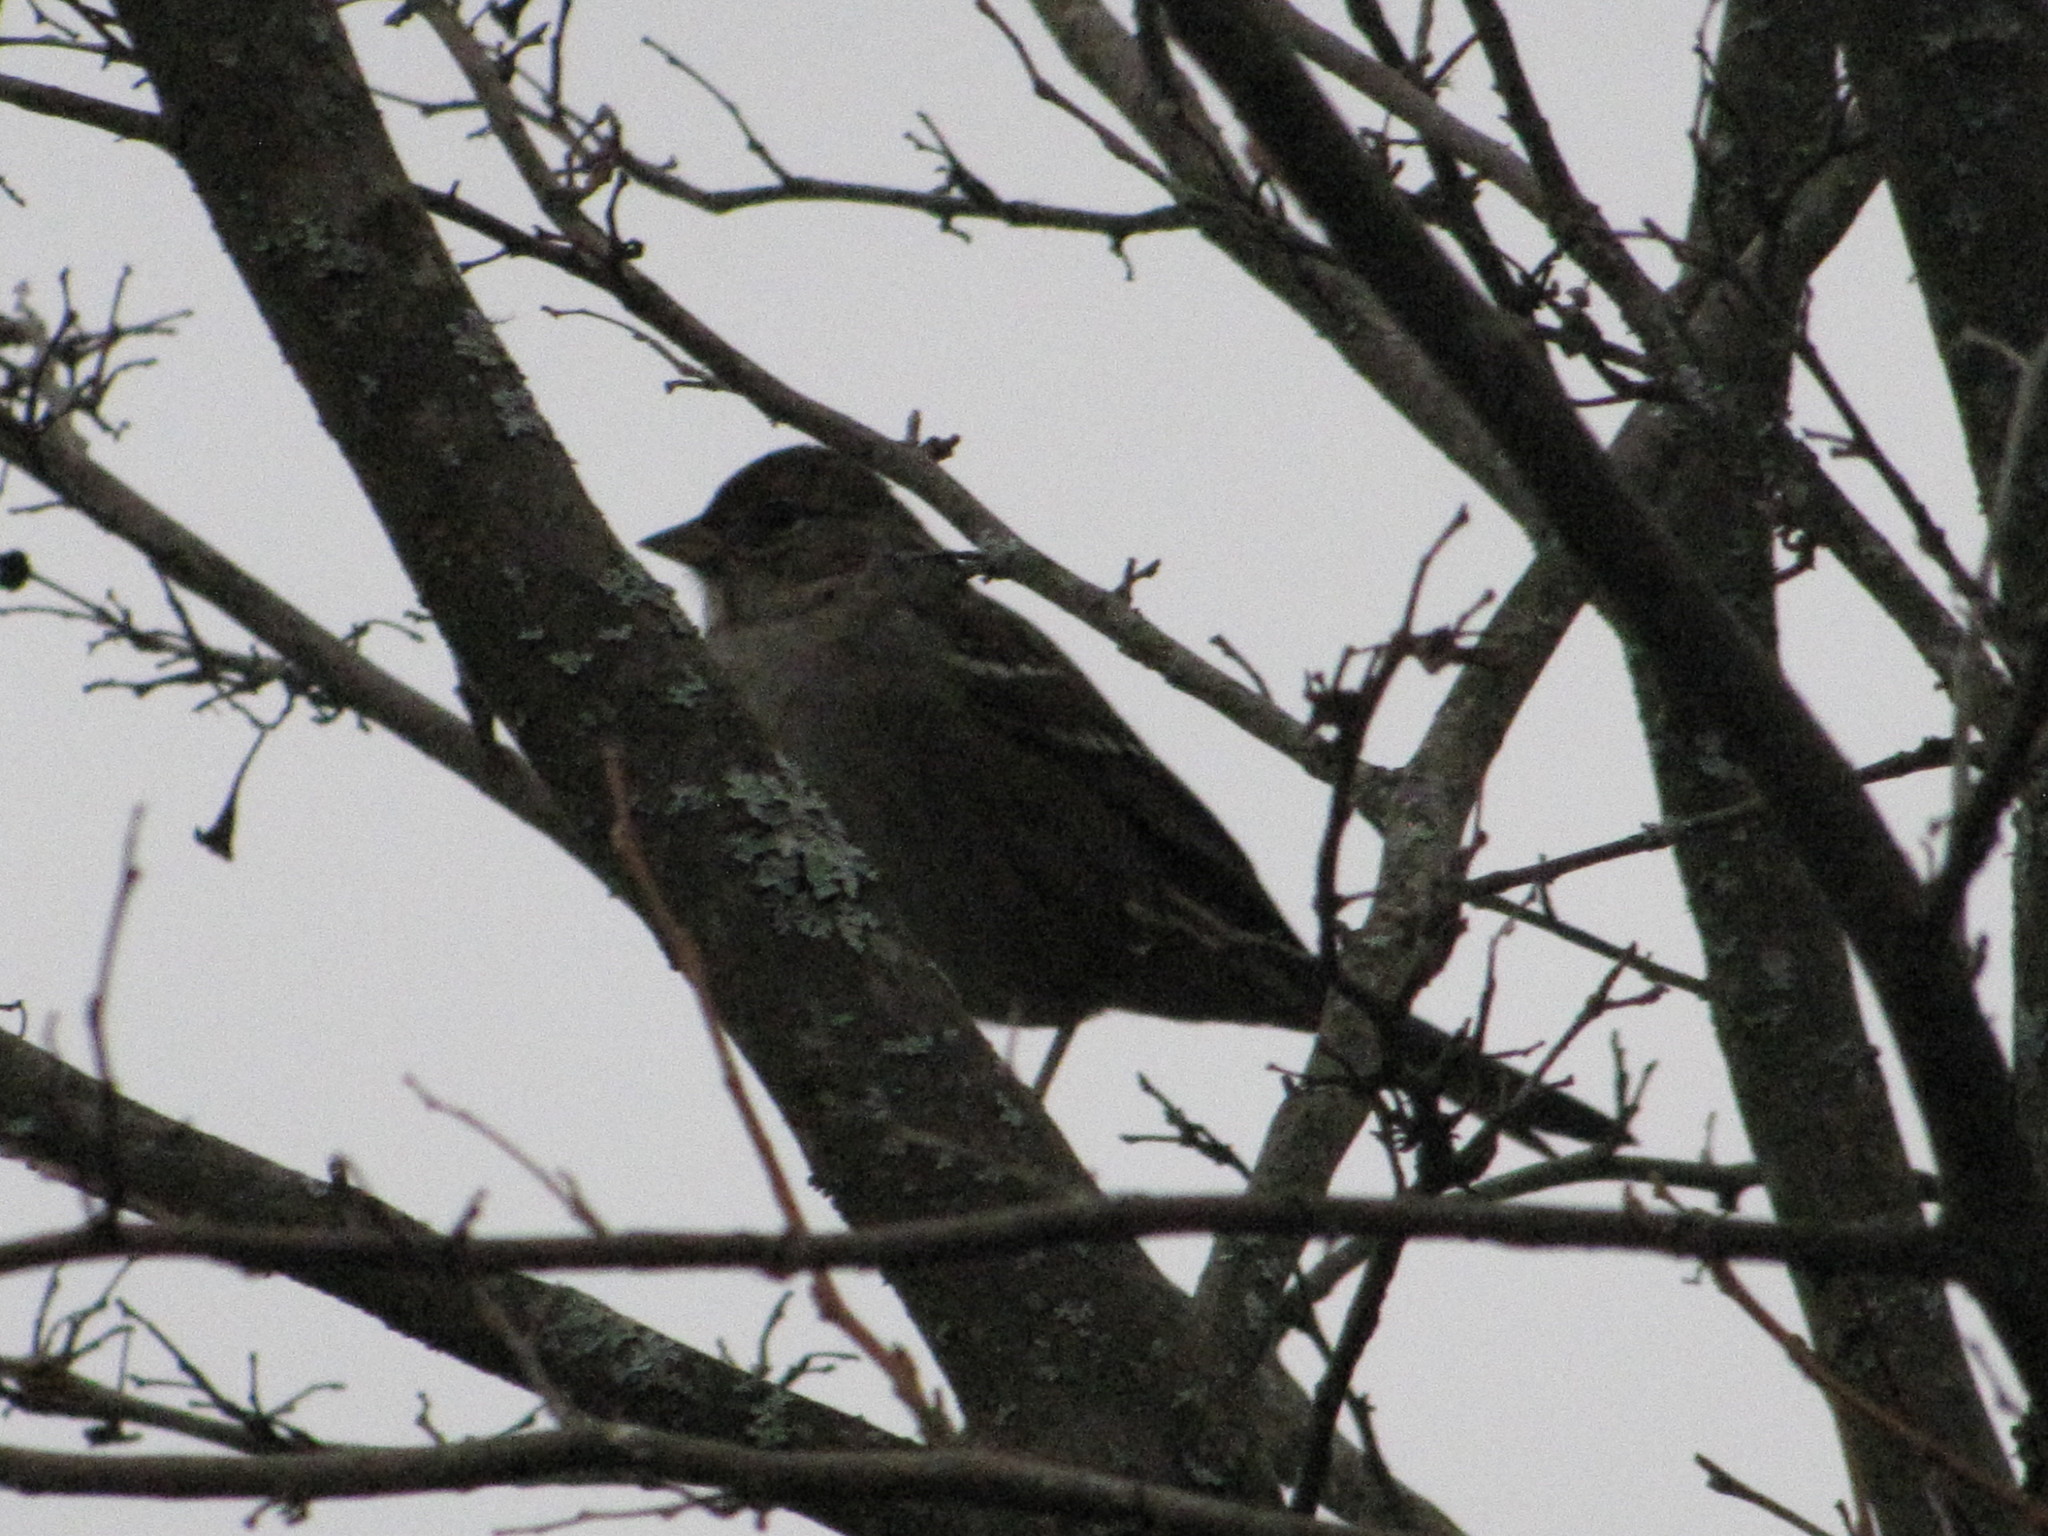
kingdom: Animalia
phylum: Chordata
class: Aves
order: Passeriformes
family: Passerellidae
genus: Zonotrichia
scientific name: Zonotrichia atricapilla
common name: Golden-crowned sparrow
